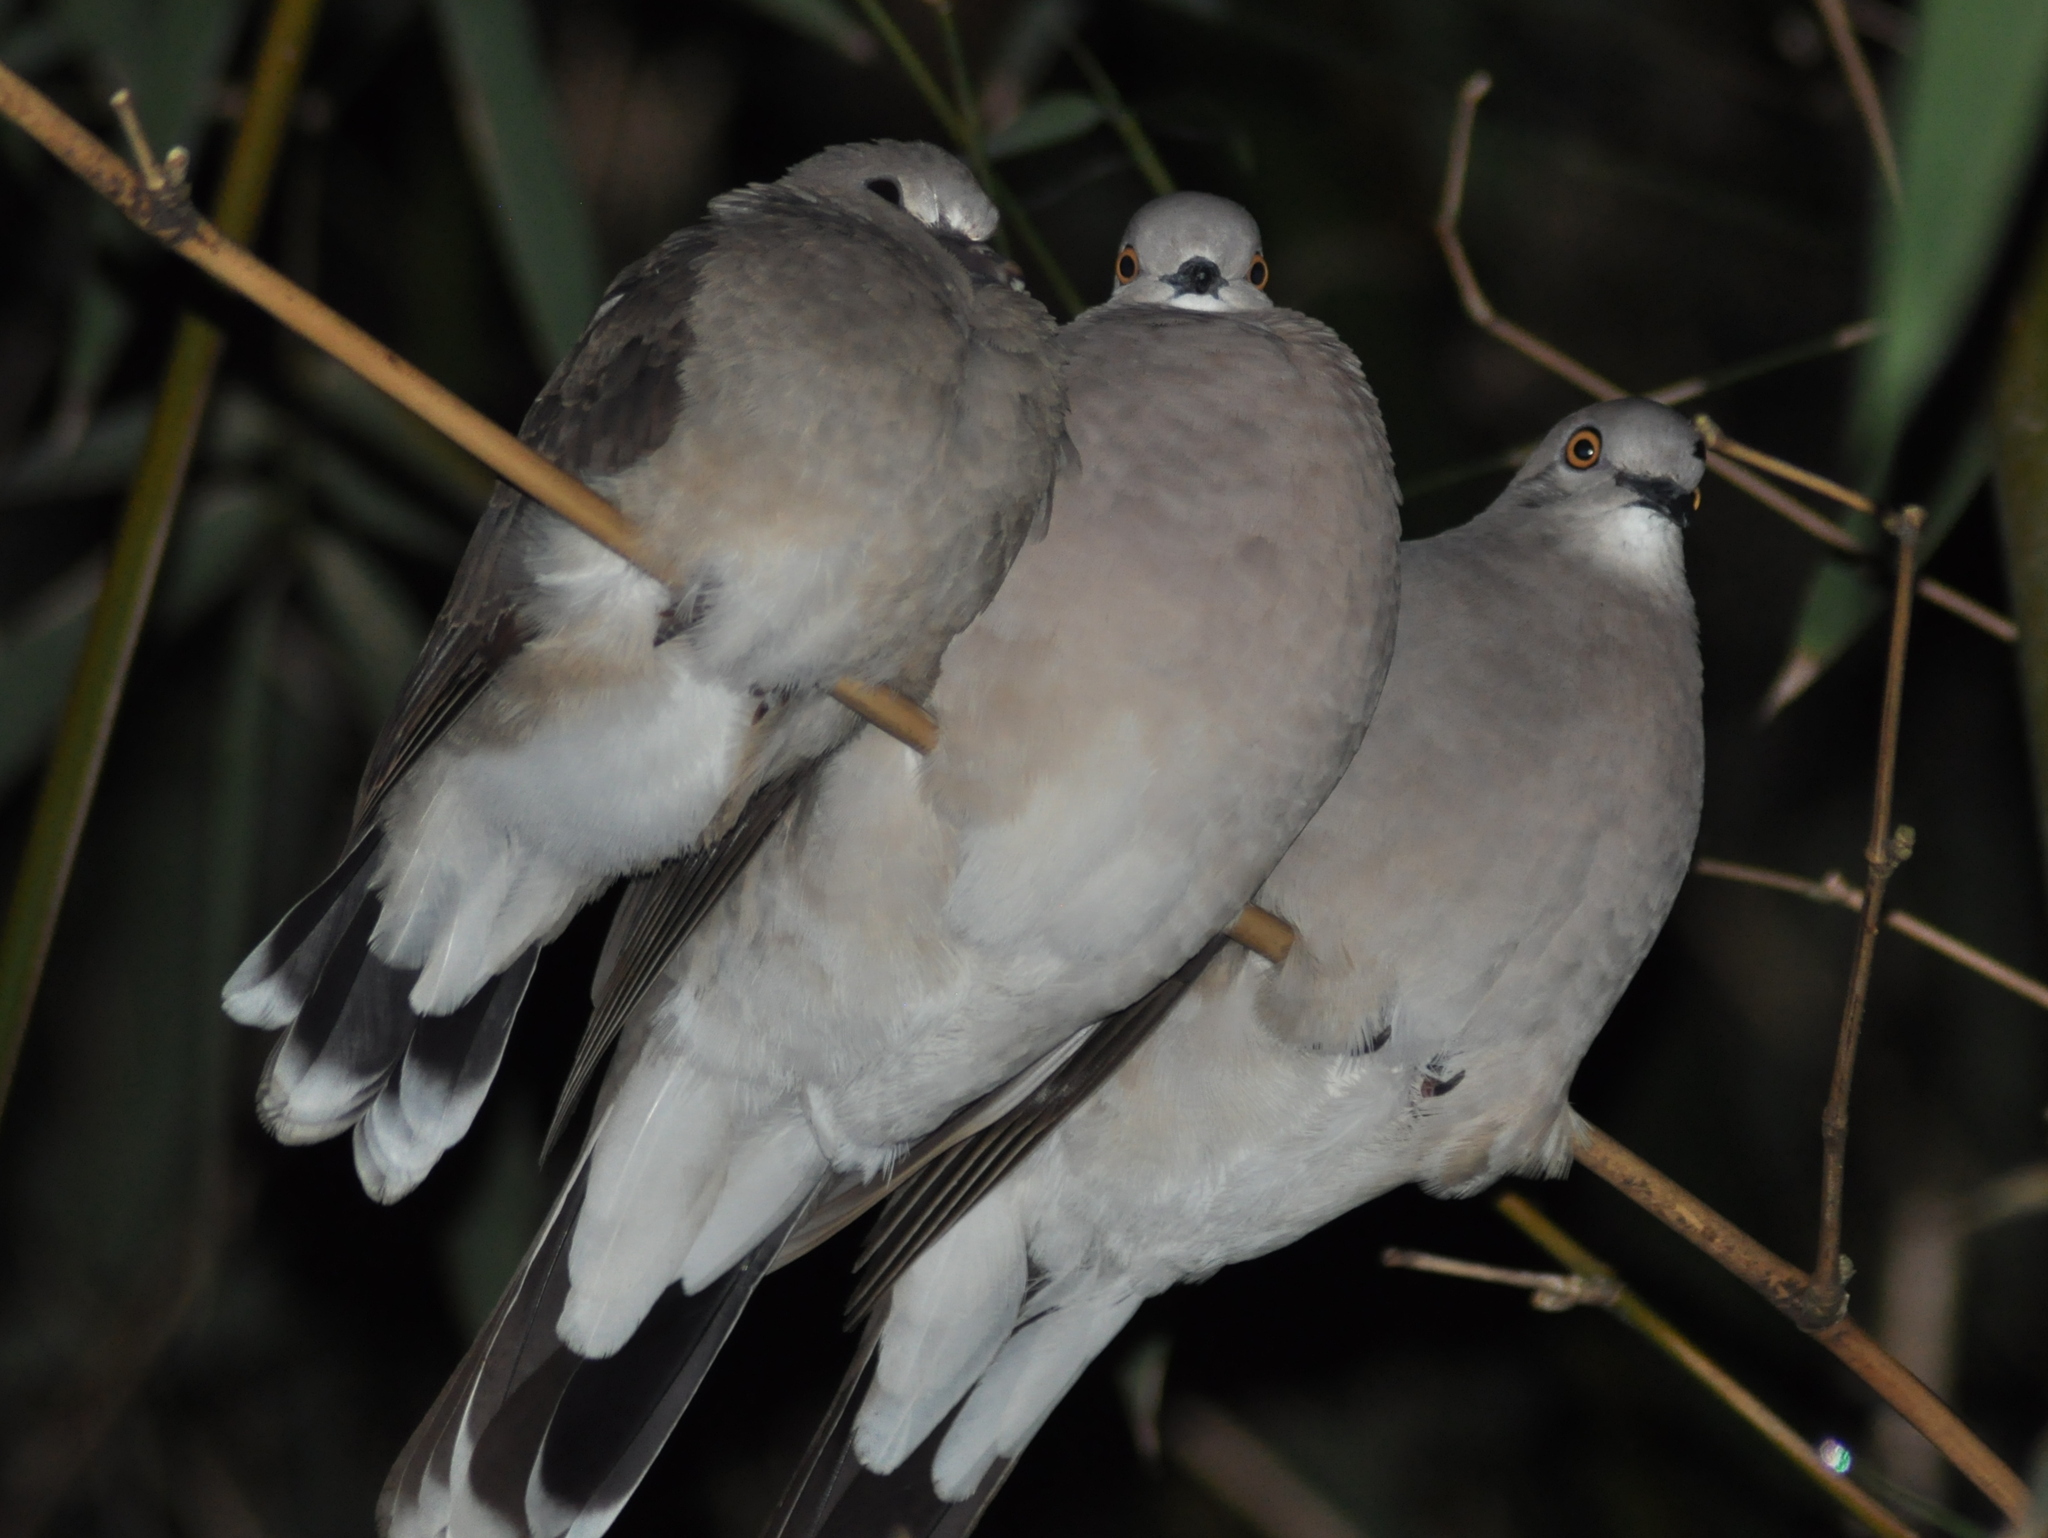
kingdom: Animalia
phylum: Chordata
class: Aves
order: Columbiformes
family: Columbidae
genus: Leptotila
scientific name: Leptotila verreauxi
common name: White-tipped dove
